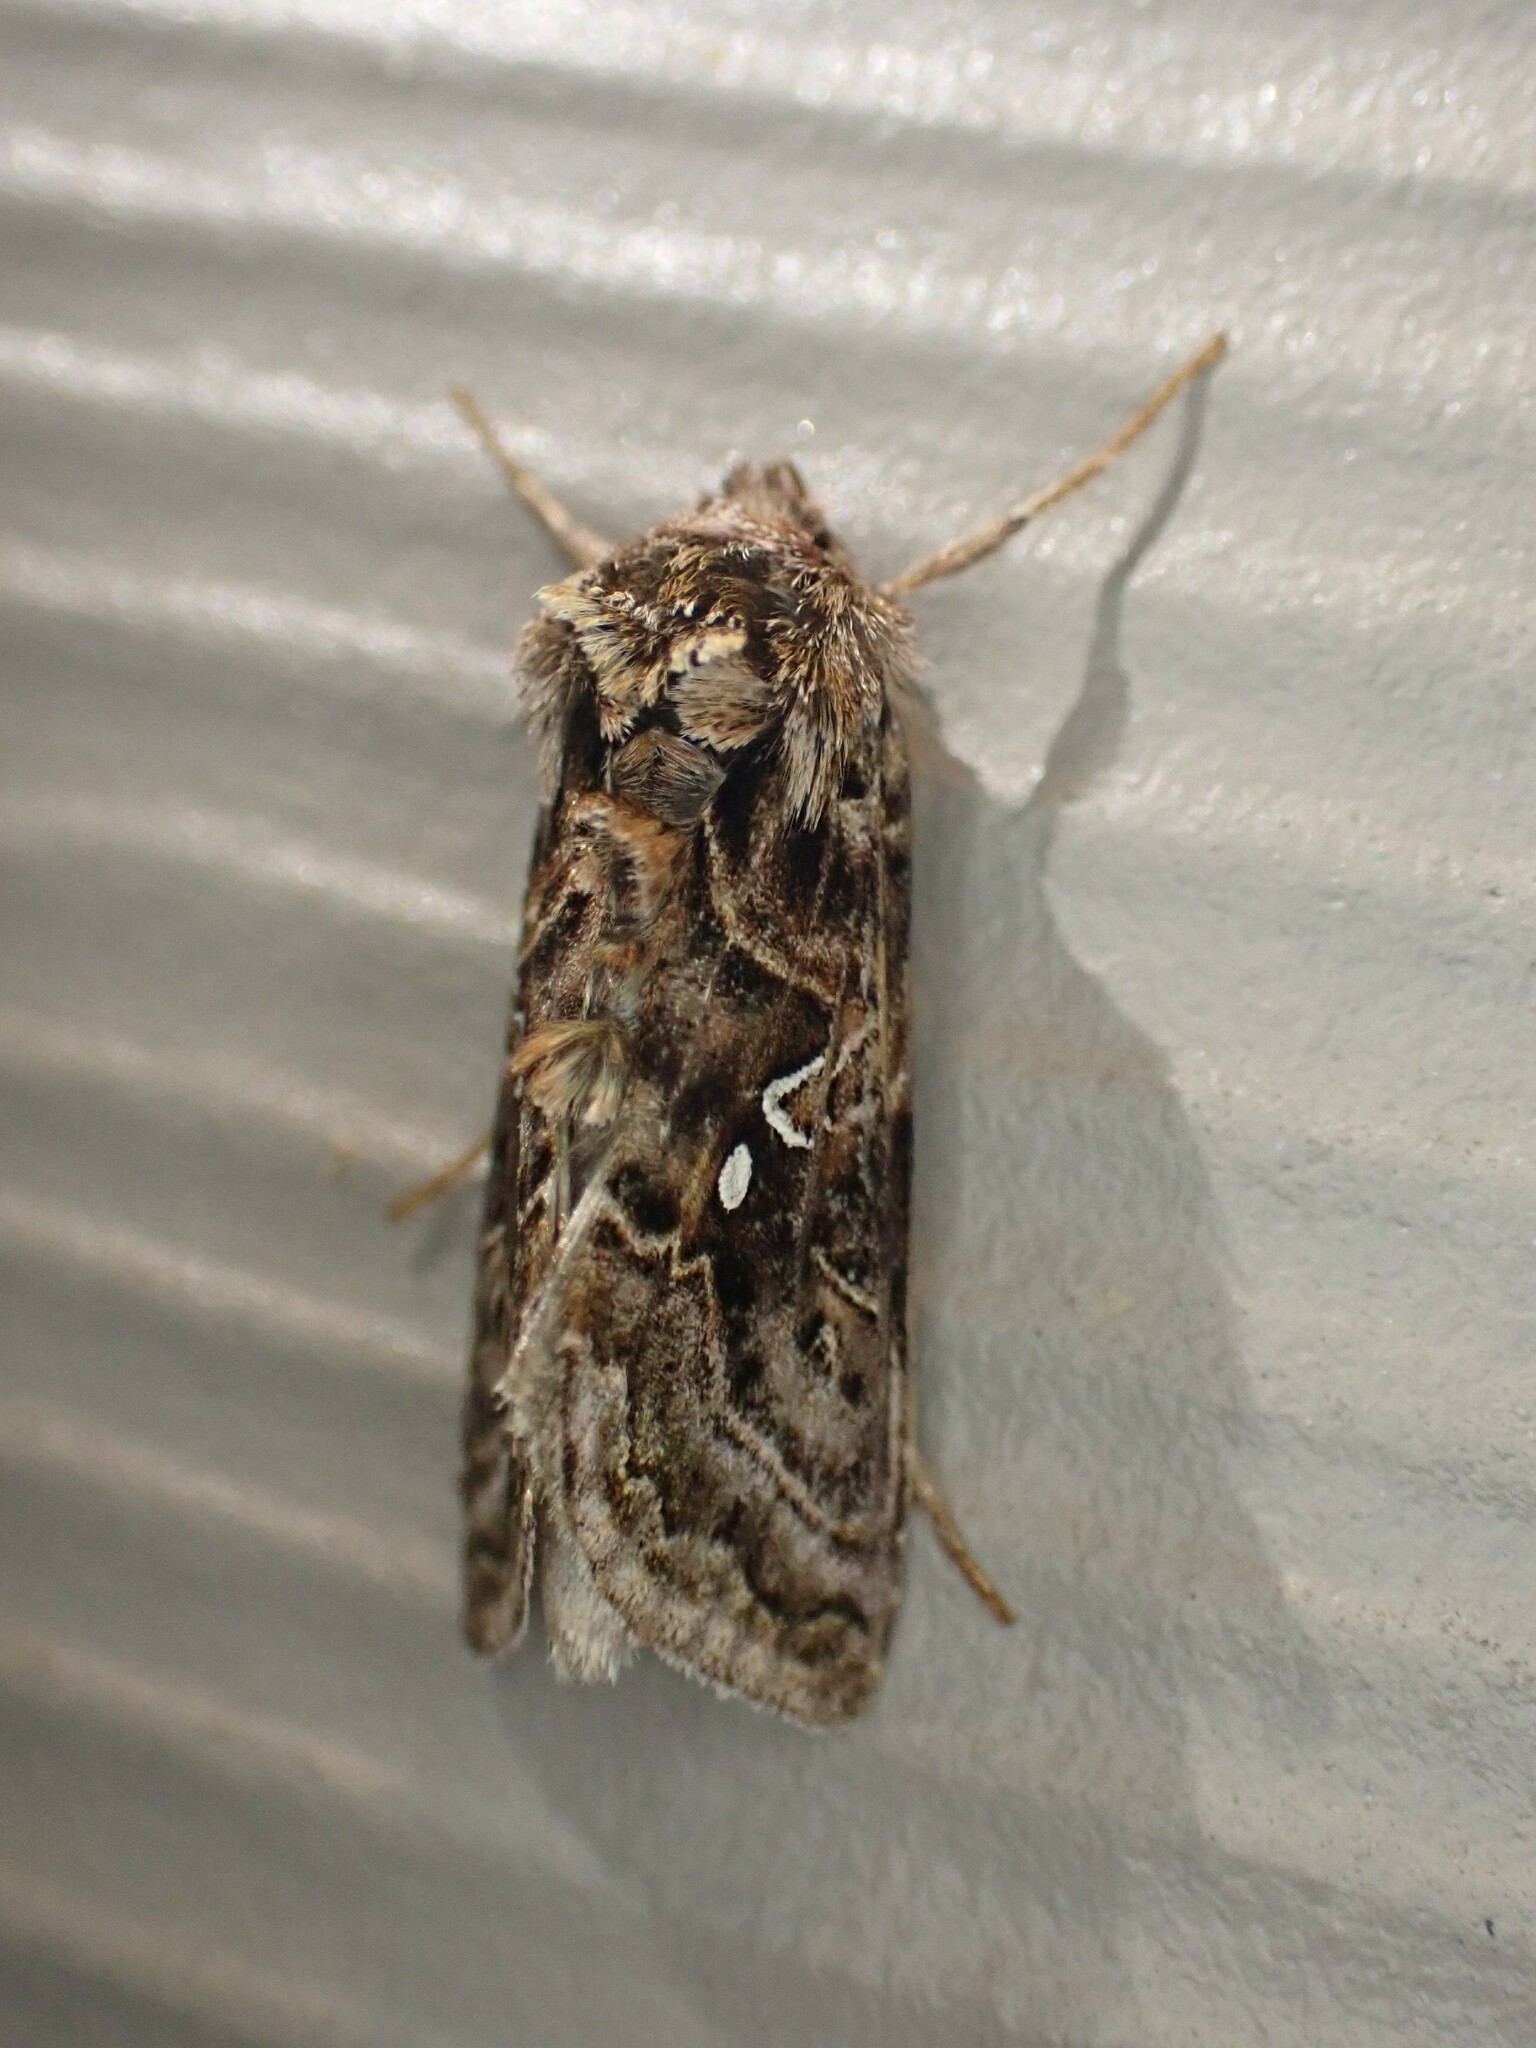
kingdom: Animalia
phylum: Arthropoda
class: Insecta
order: Lepidoptera
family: Noctuidae
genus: Autographa
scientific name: Autographa mappa
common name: Wavy chestnut y moth
